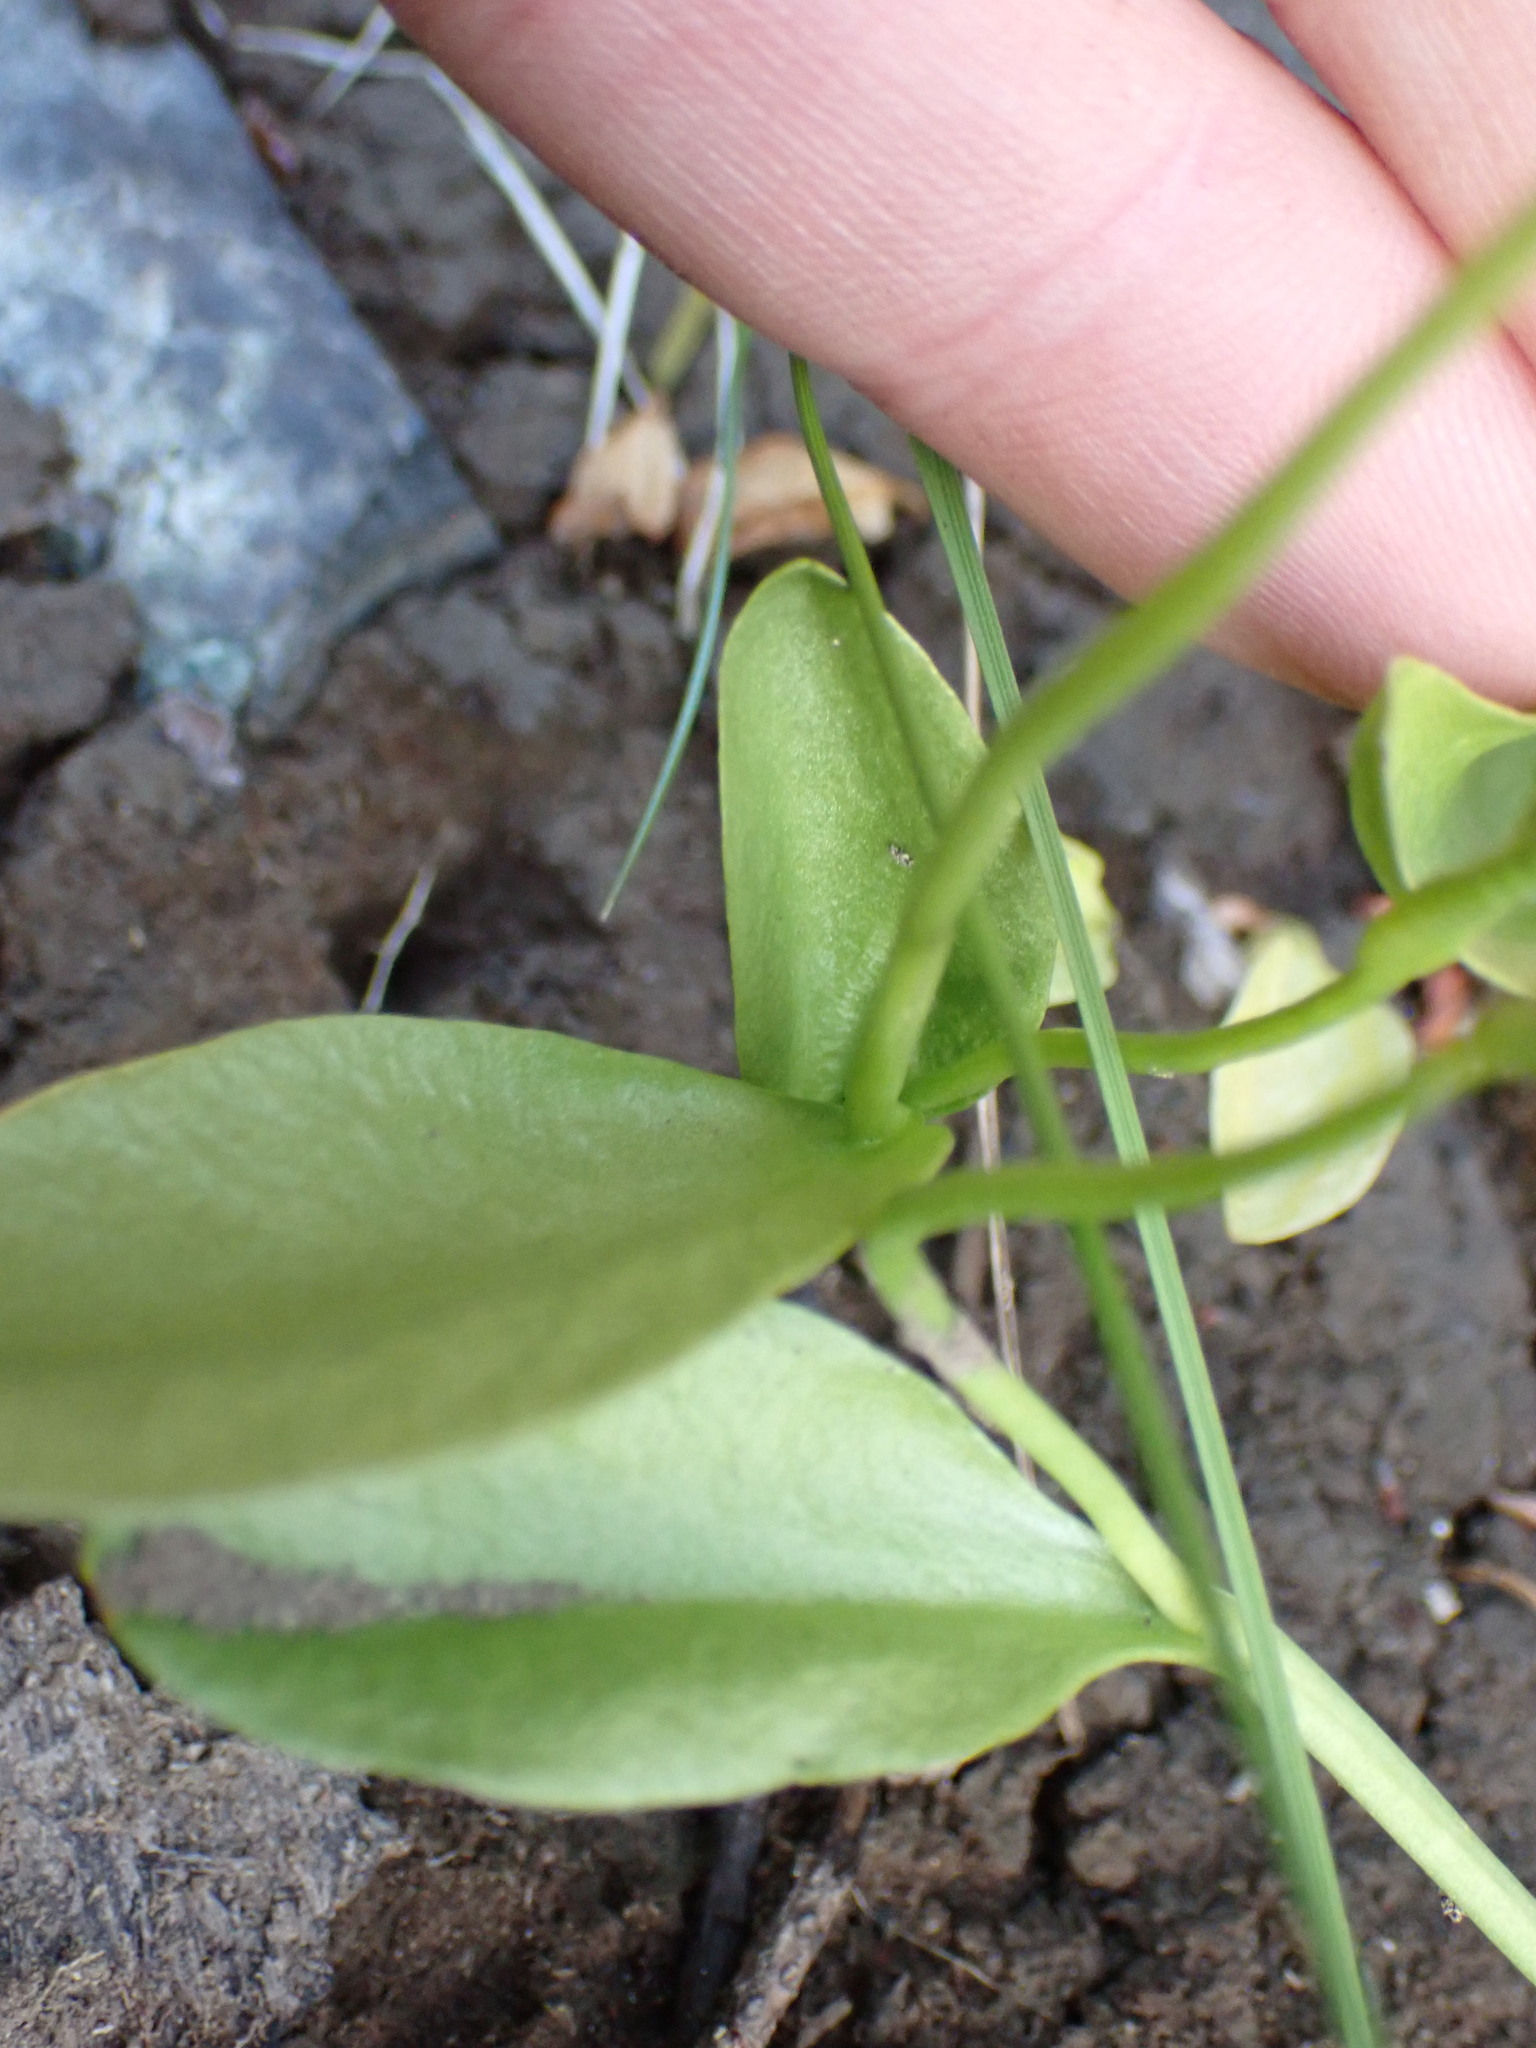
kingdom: Plantae
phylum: Tracheophyta
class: Polypodiopsida
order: Ophioglossales
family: Ophioglossaceae
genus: Ophioglossum
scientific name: Ophioglossum pusillum
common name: Northern adder's-tongue
